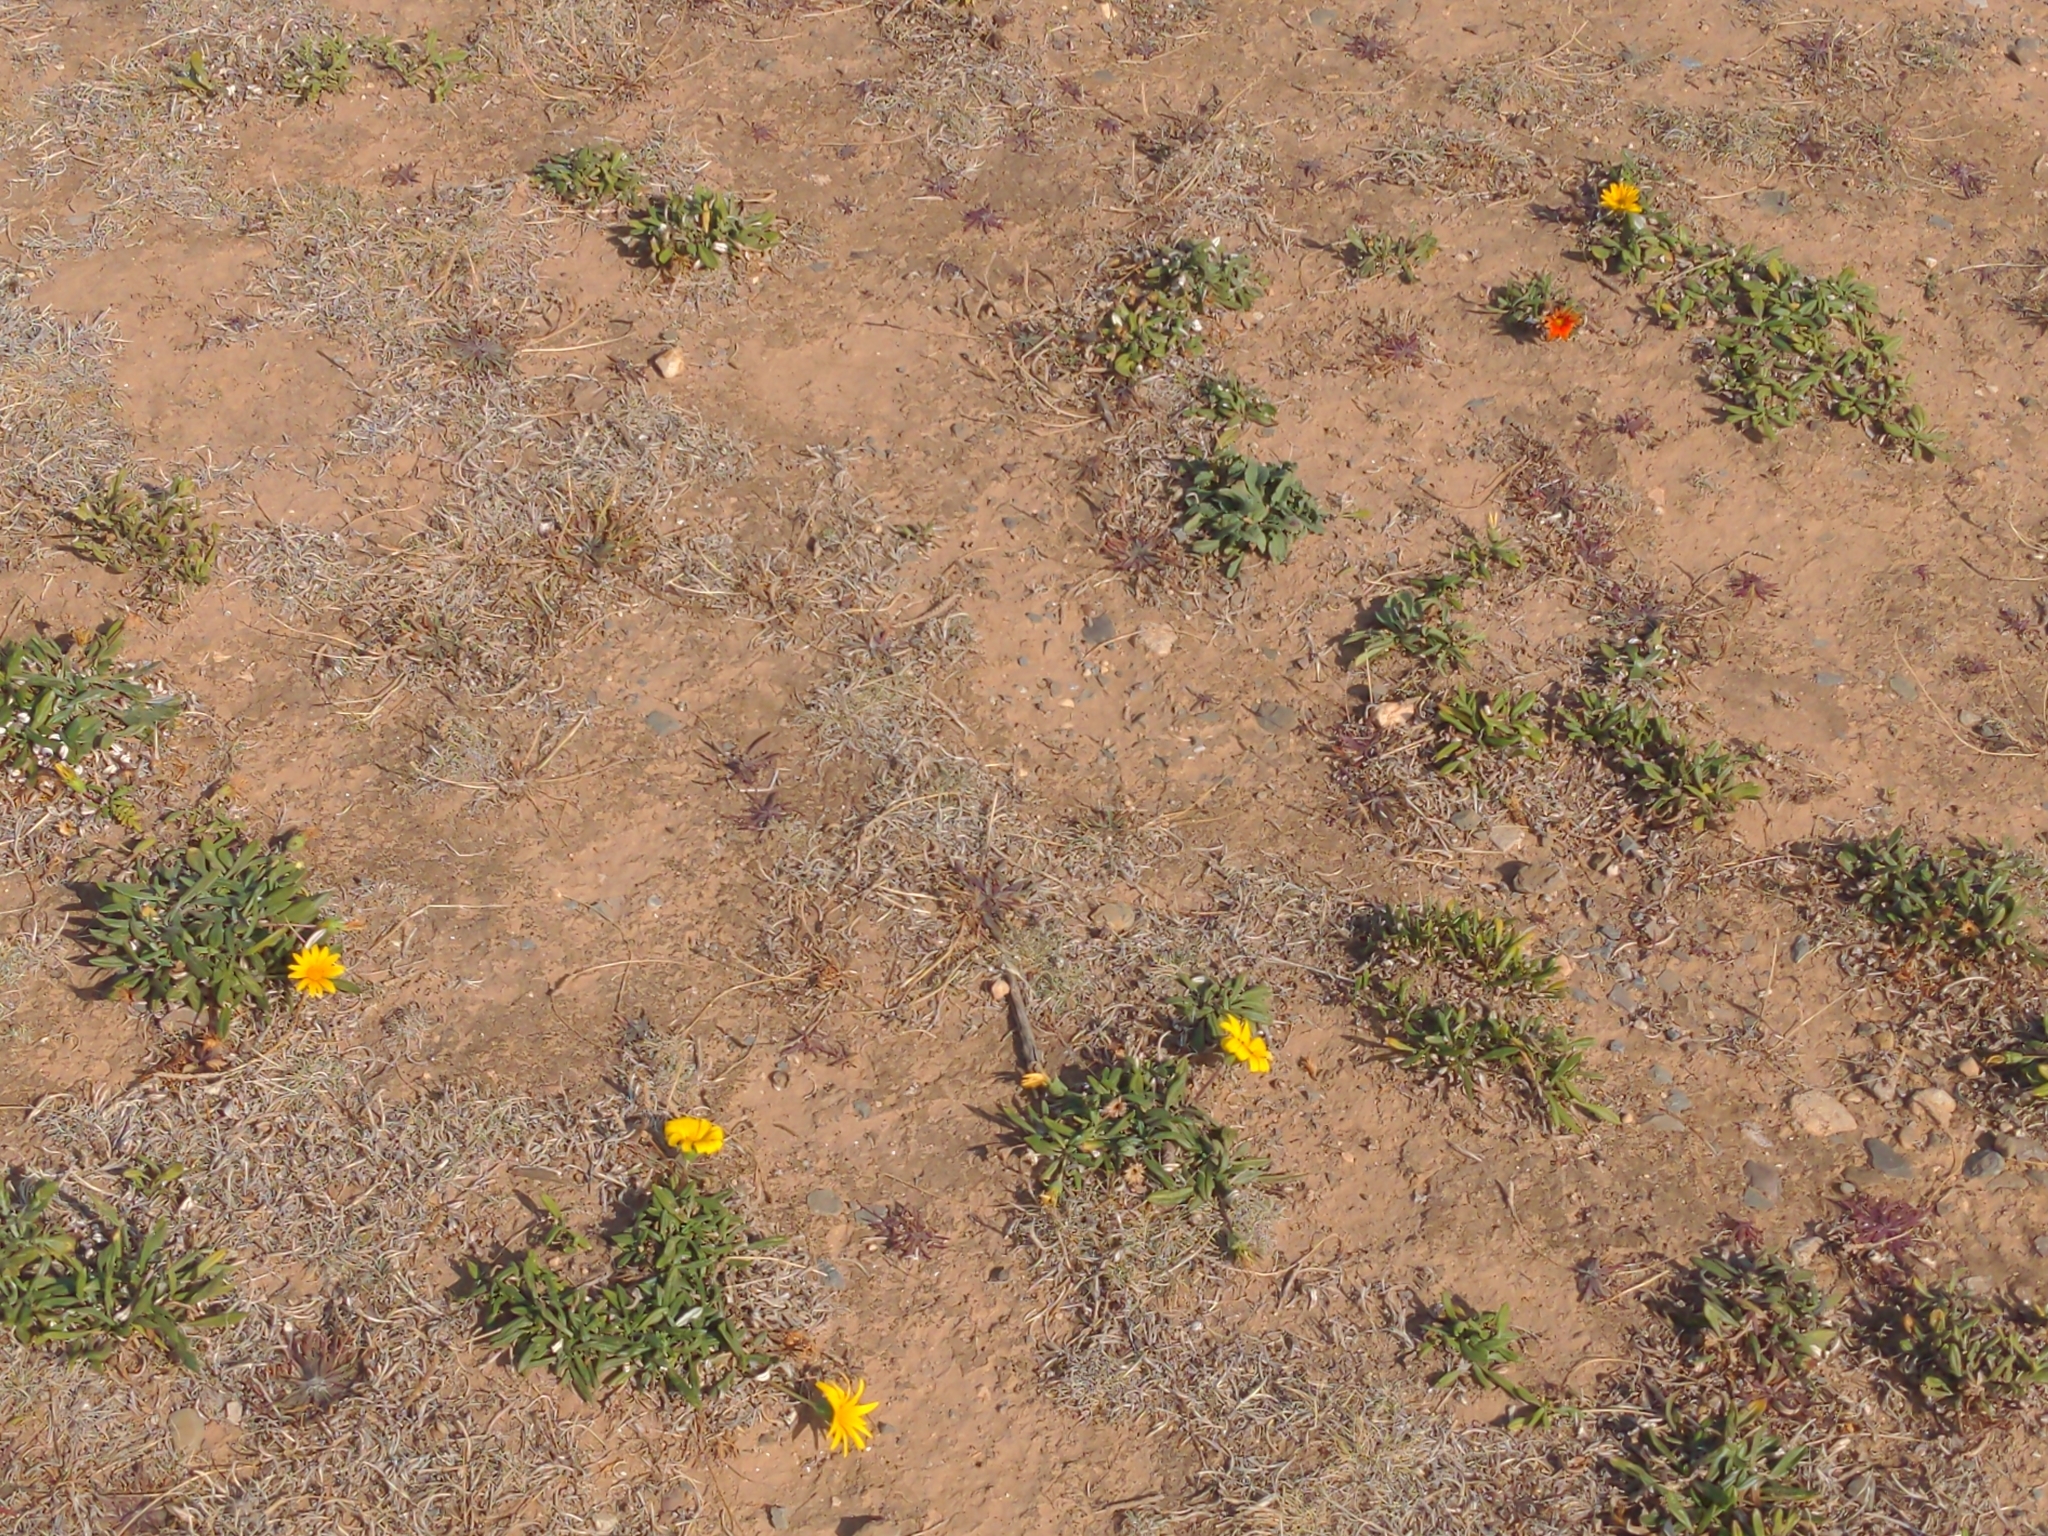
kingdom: Plantae
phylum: Tracheophyta
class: Magnoliopsida
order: Asterales
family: Asteraceae
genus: Gazania
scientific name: Gazania splendens
